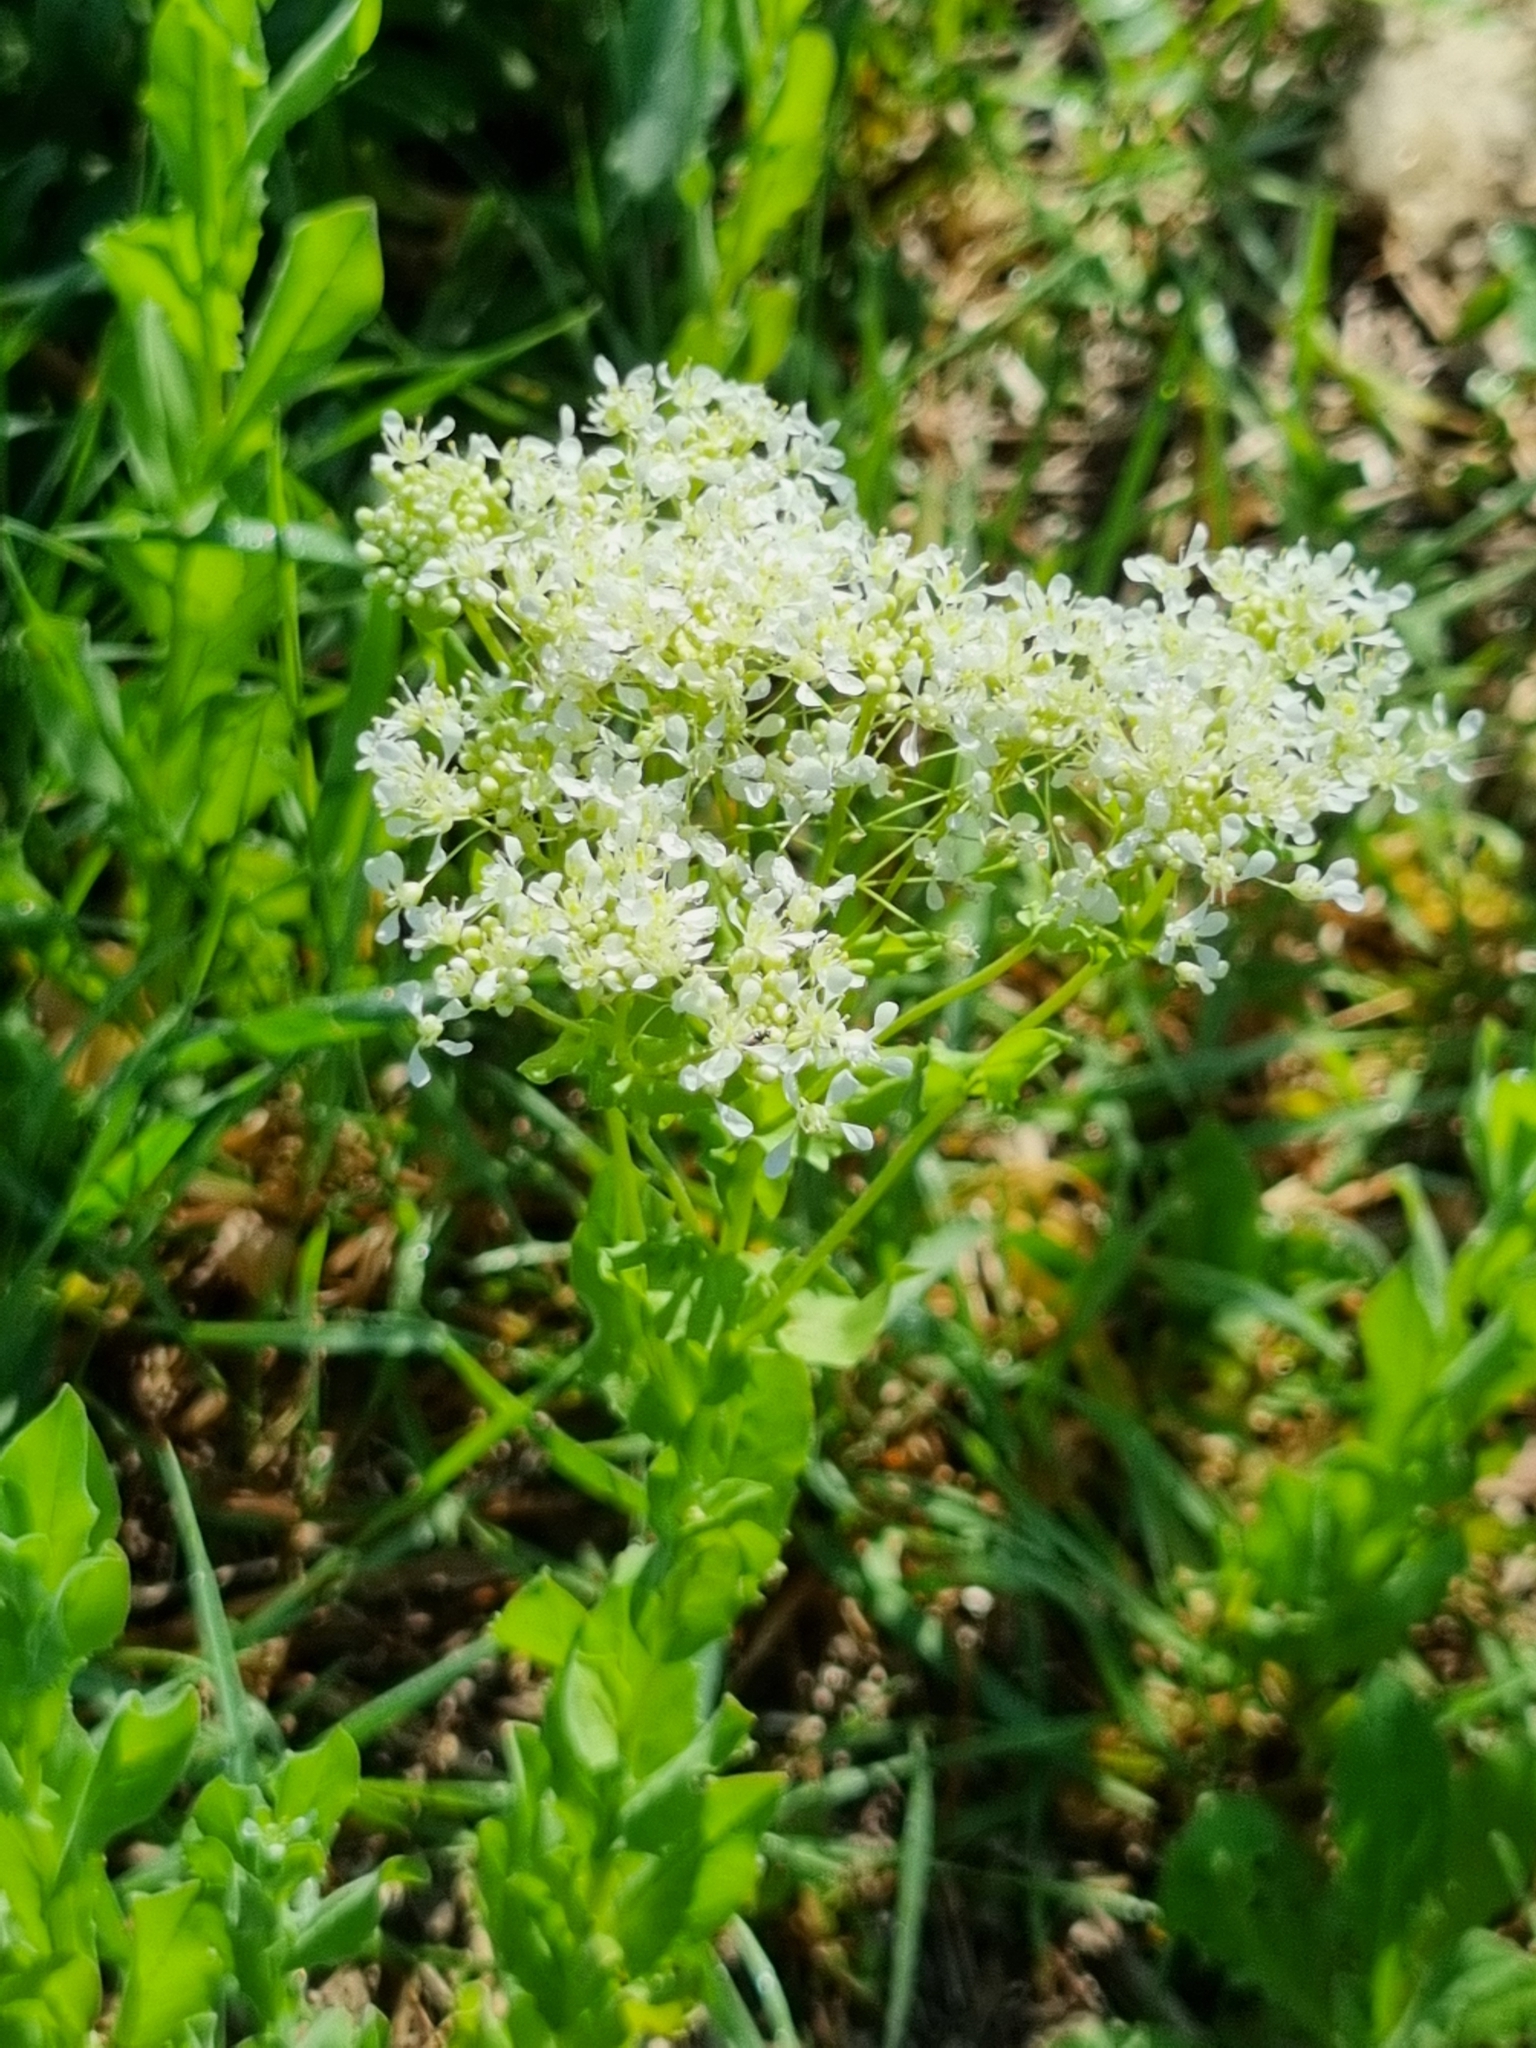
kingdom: Plantae
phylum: Tracheophyta
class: Magnoliopsida
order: Brassicales
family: Brassicaceae
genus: Lepidium
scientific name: Lepidium draba
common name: Hoary cress
